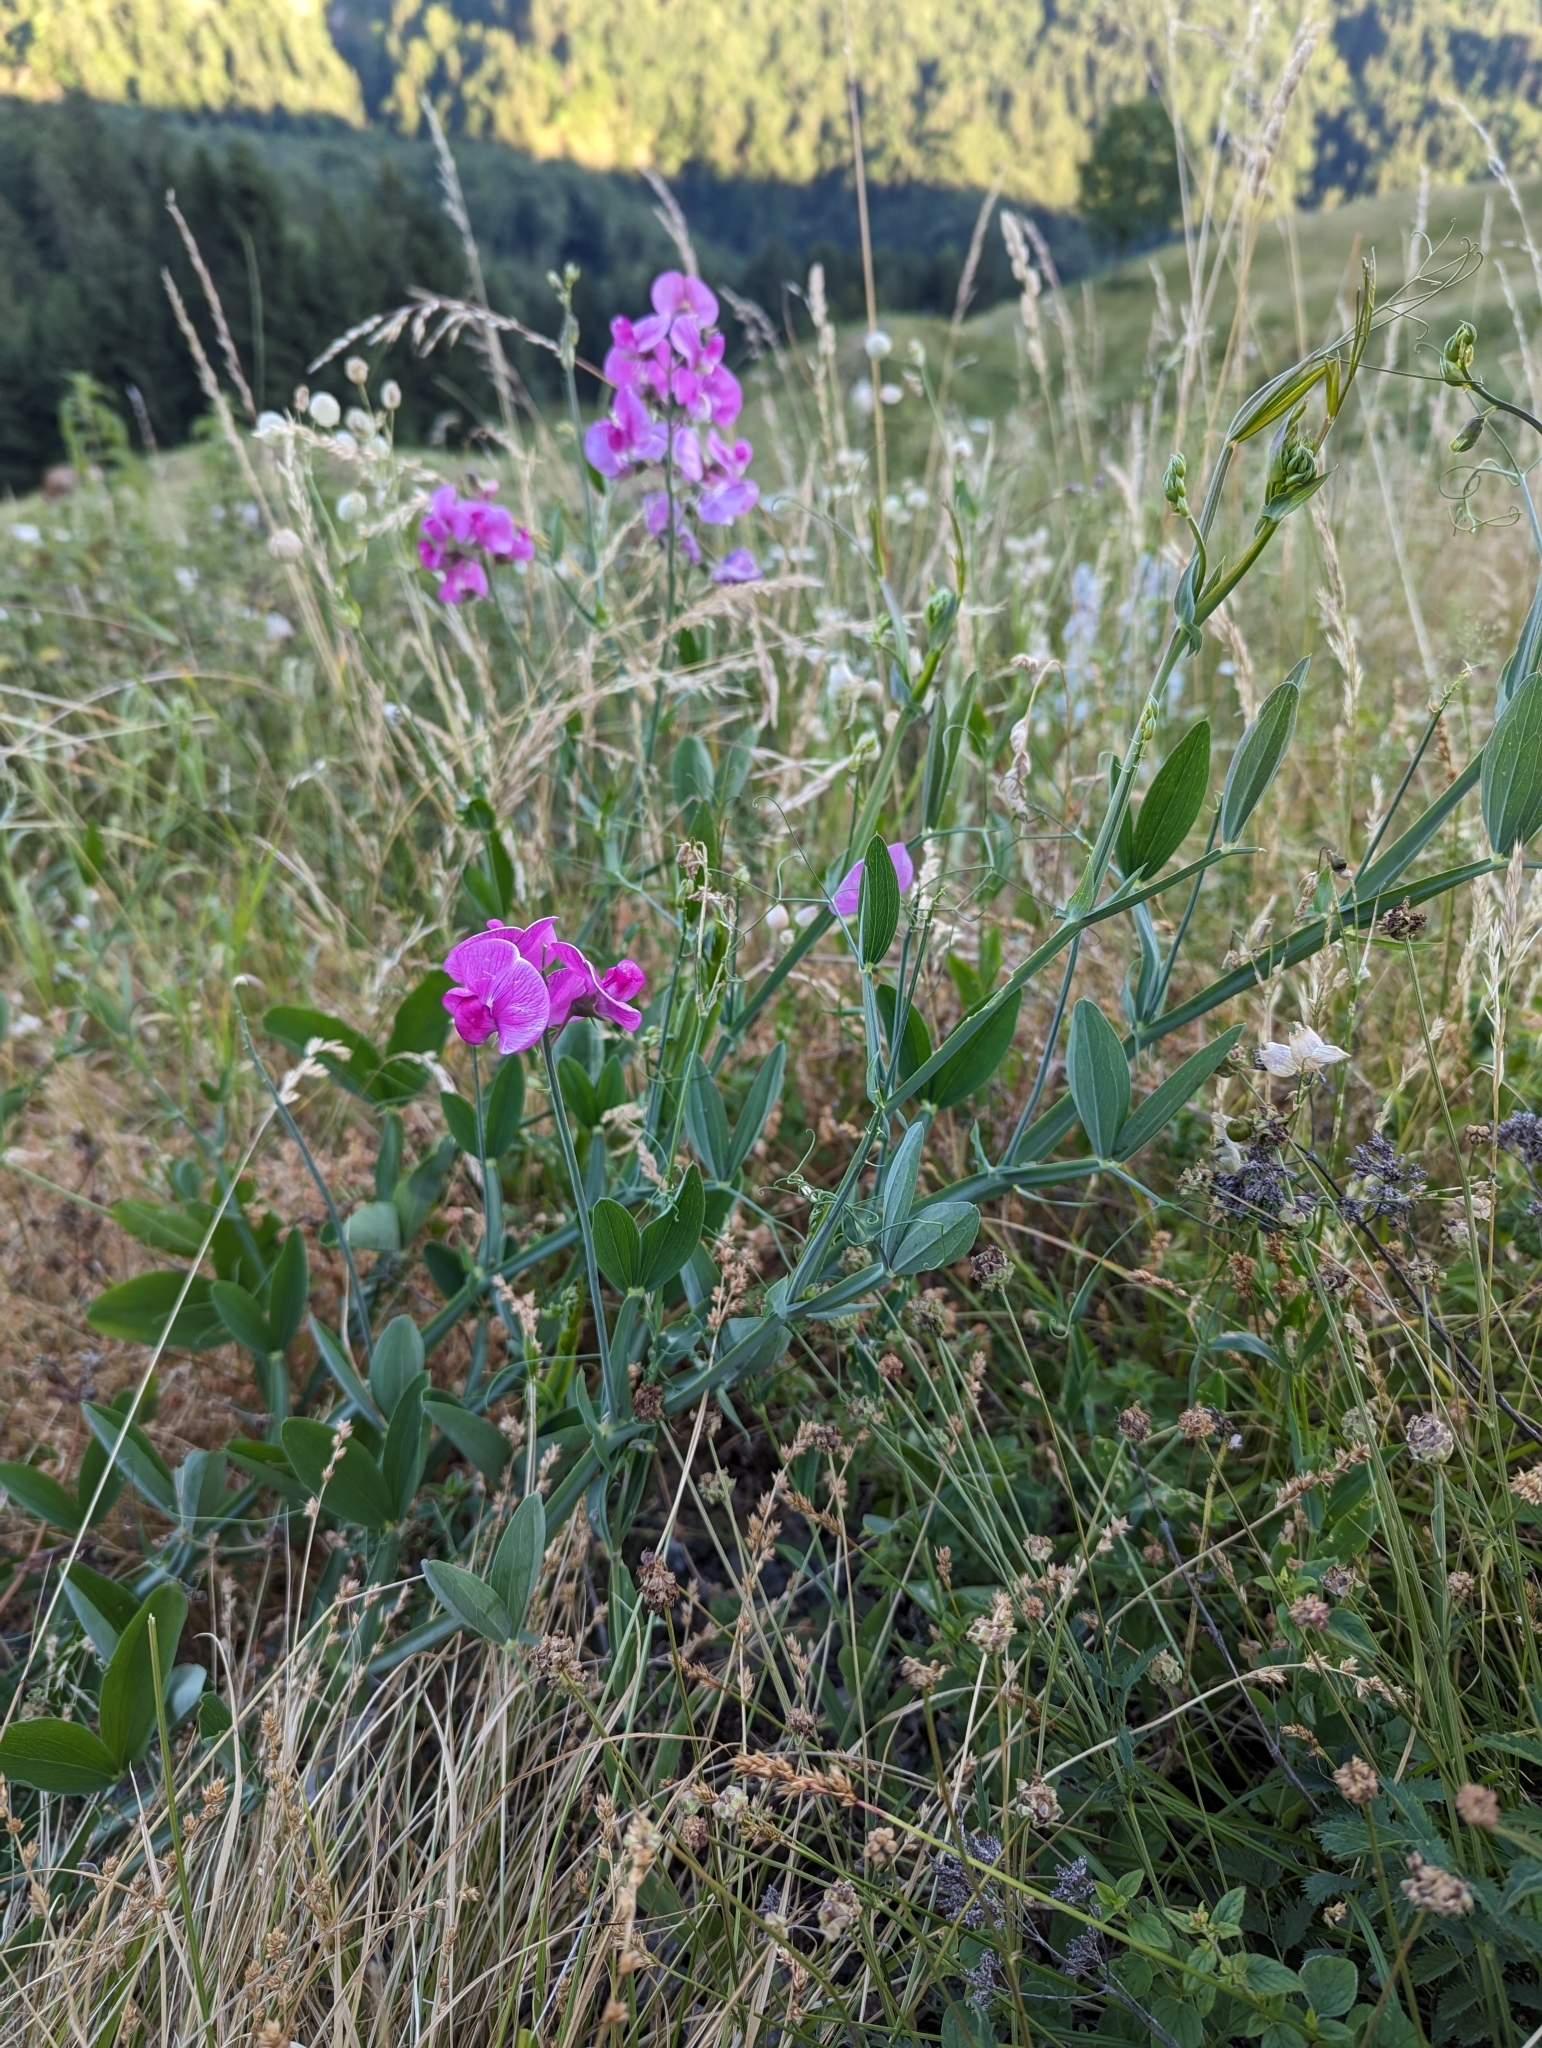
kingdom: Plantae
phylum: Tracheophyta
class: Magnoliopsida
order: Fabales
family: Fabaceae
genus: Lathyrus
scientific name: Lathyrus latifolius
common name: Perennial pea
